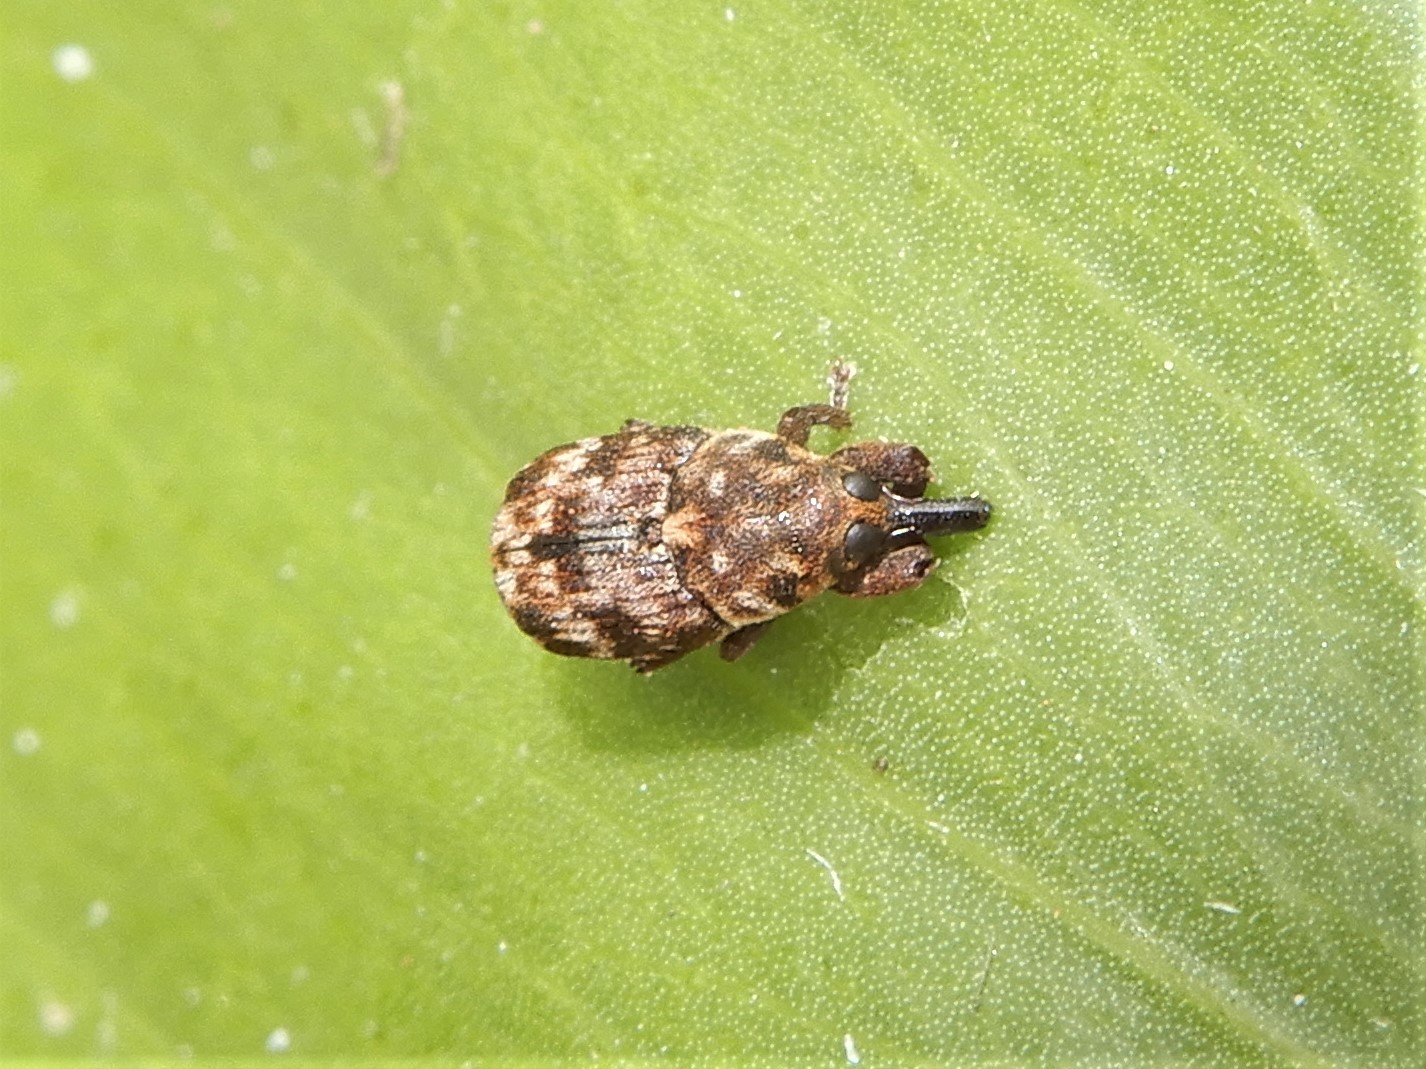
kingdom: Animalia
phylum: Arthropoda
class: Insecta
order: Coleoptera
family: Curculionidae
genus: Neolaemosaccus
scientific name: Neolaemosaccus narinus
